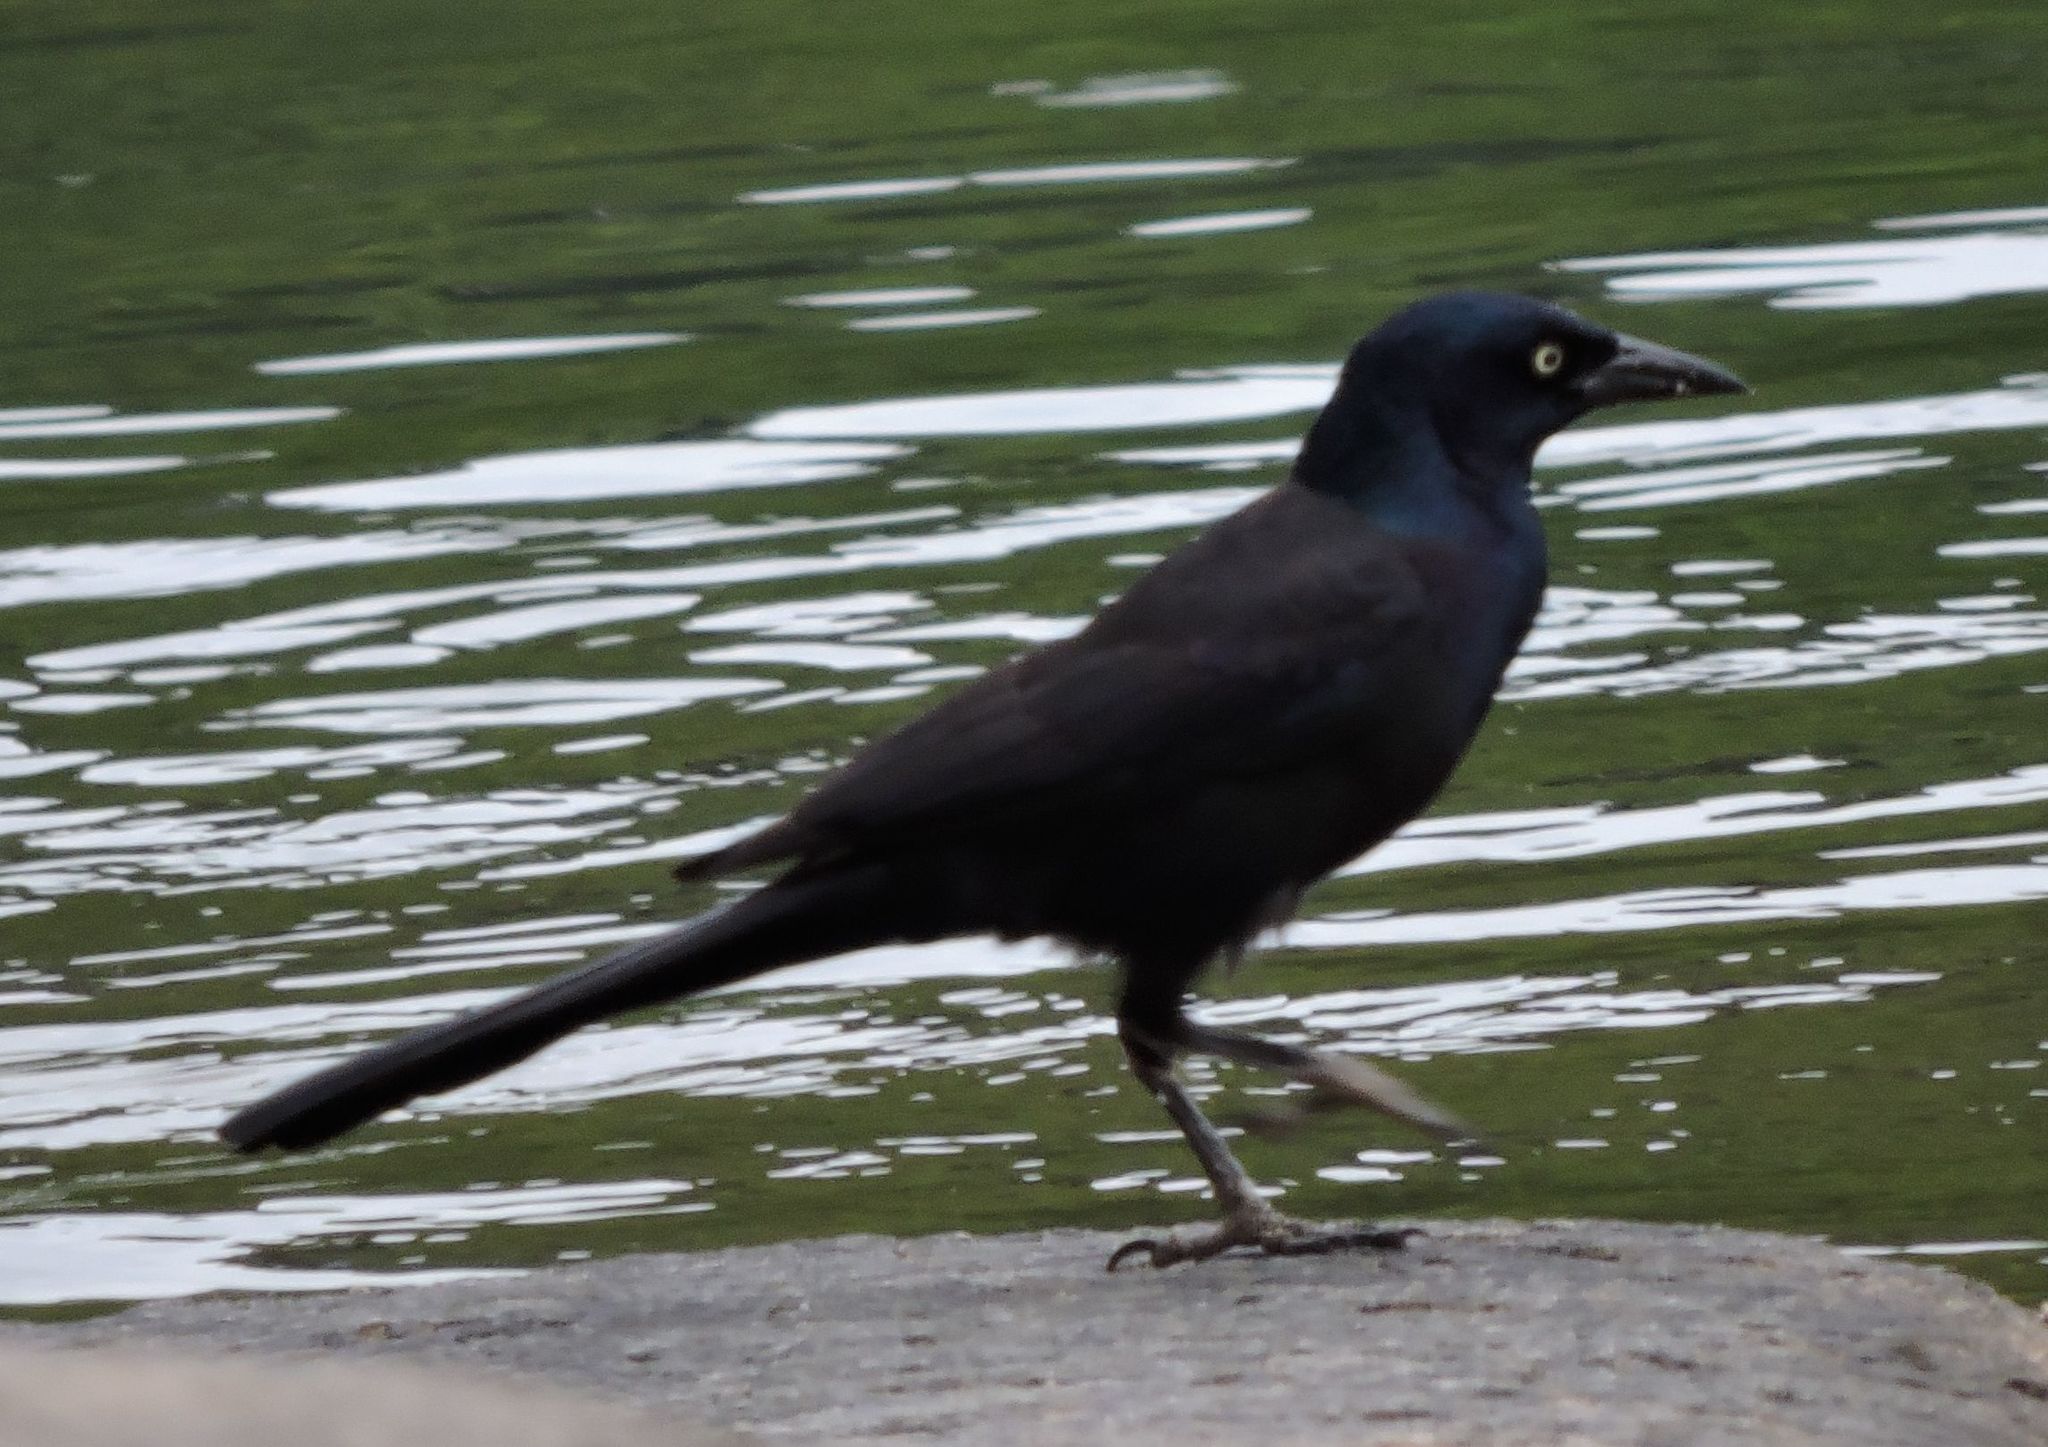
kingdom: Animalia
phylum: Chordata
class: Aves
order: Passeriformes
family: Icteridae
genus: Quiscalus
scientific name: Quiscalus quiscula
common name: Common grackle
